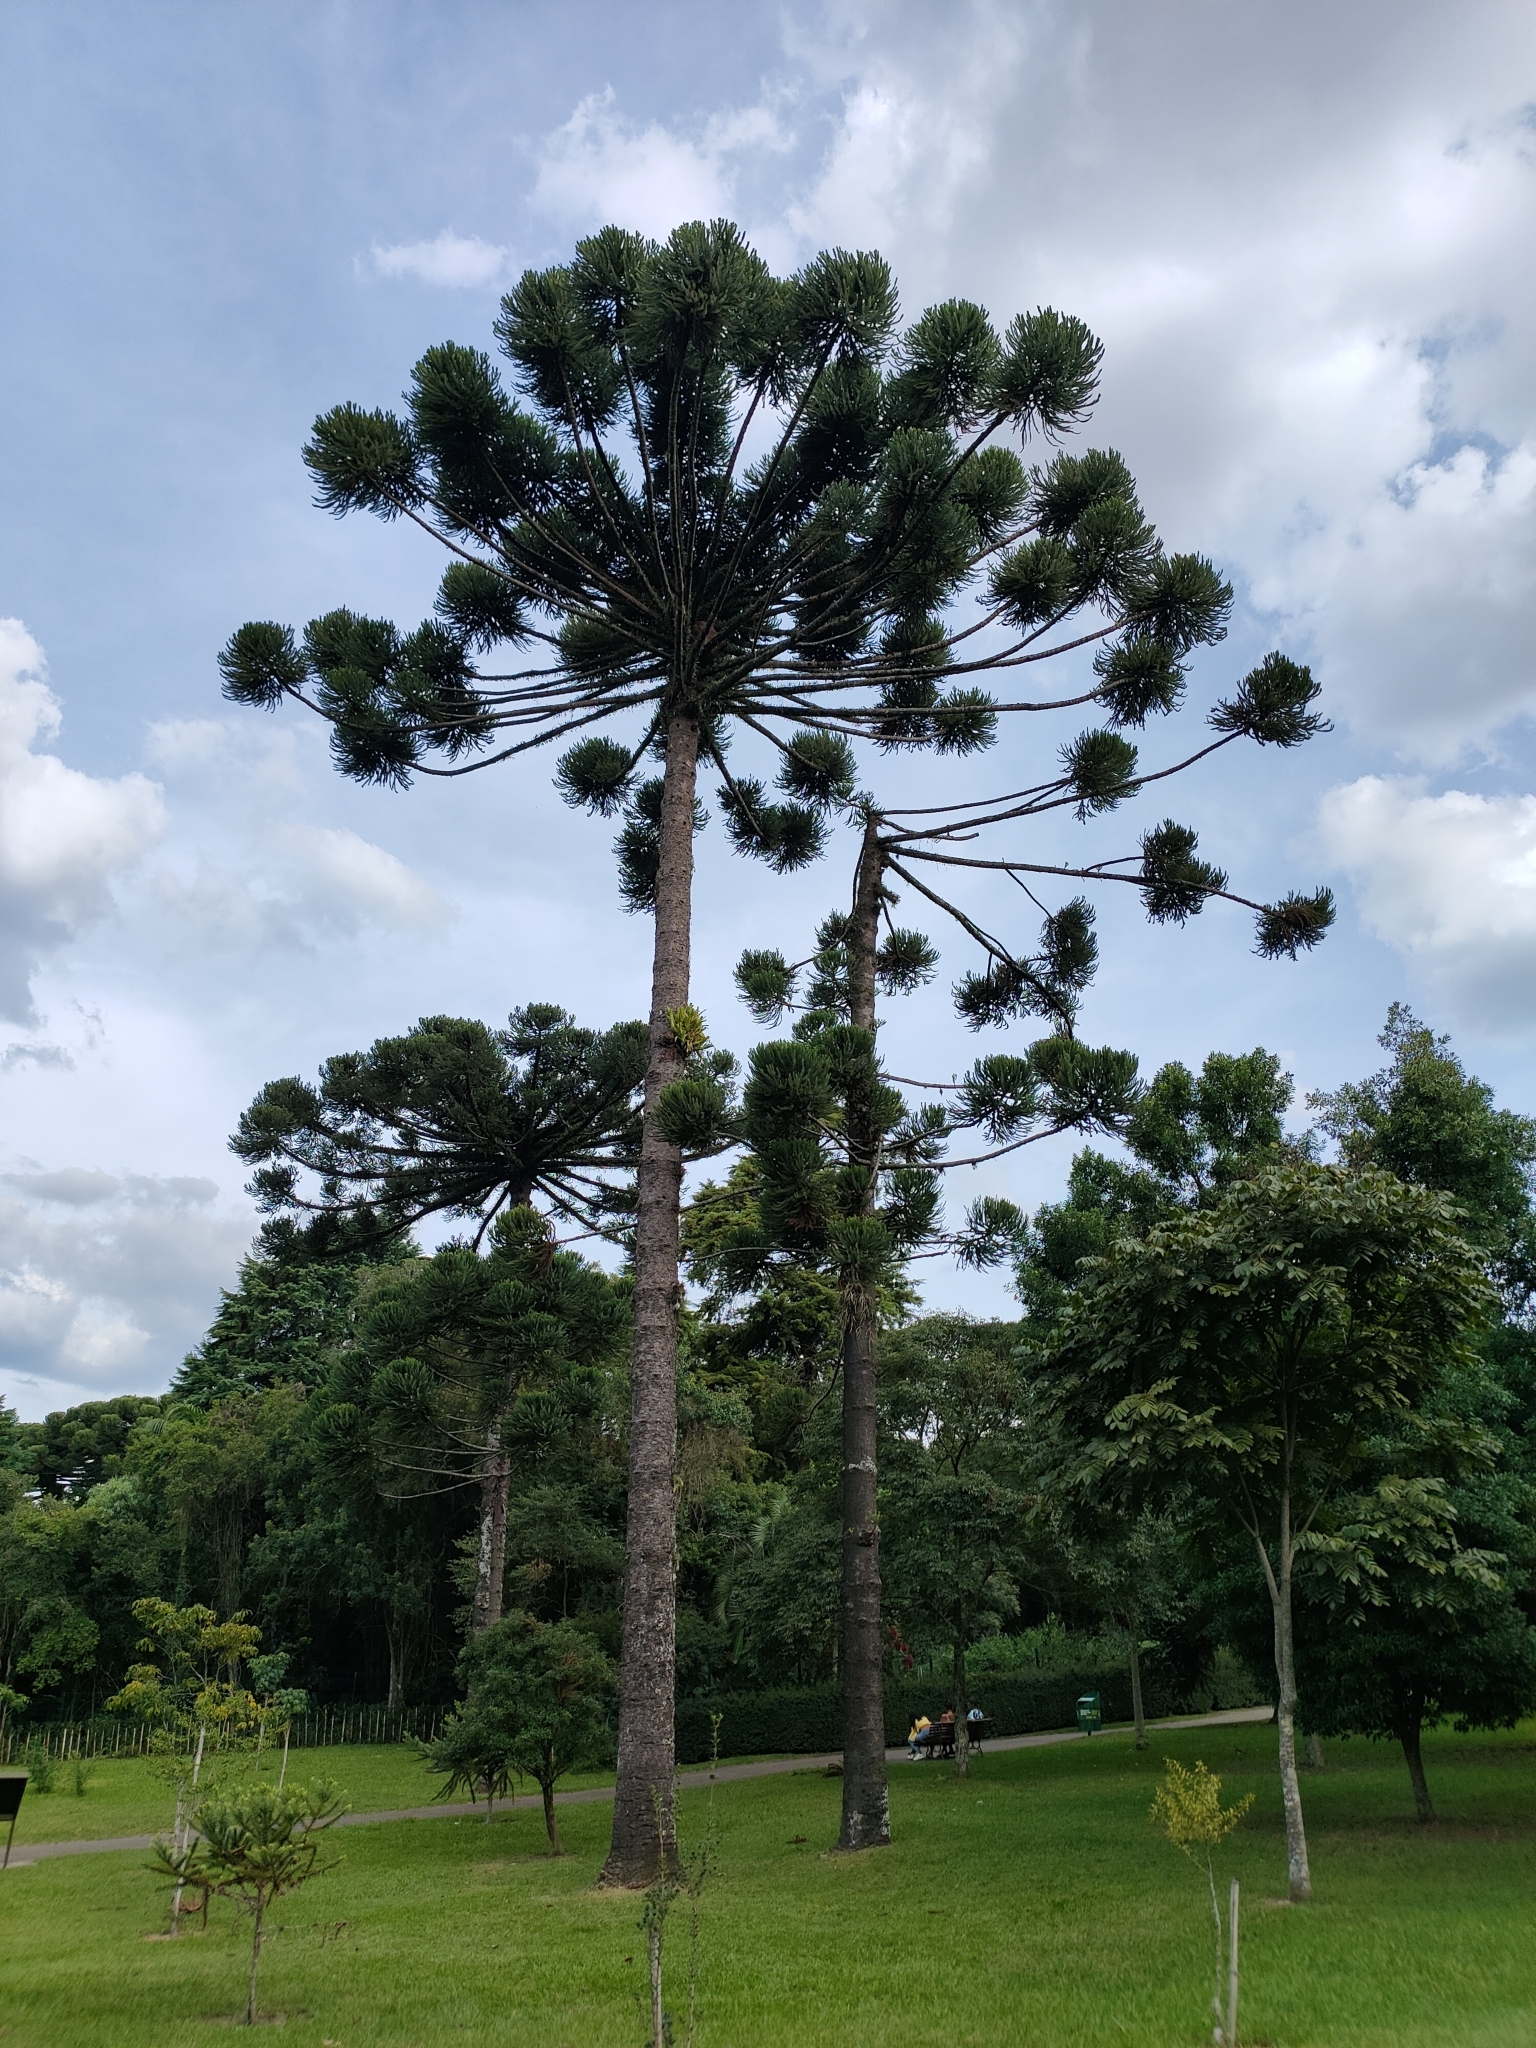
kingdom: Plantae
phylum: Tracheophyta
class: Pinopsida
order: Pinales
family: Araucariaceae
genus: Araucaria
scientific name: Araucaria angustifolia
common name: Candelabra tree
